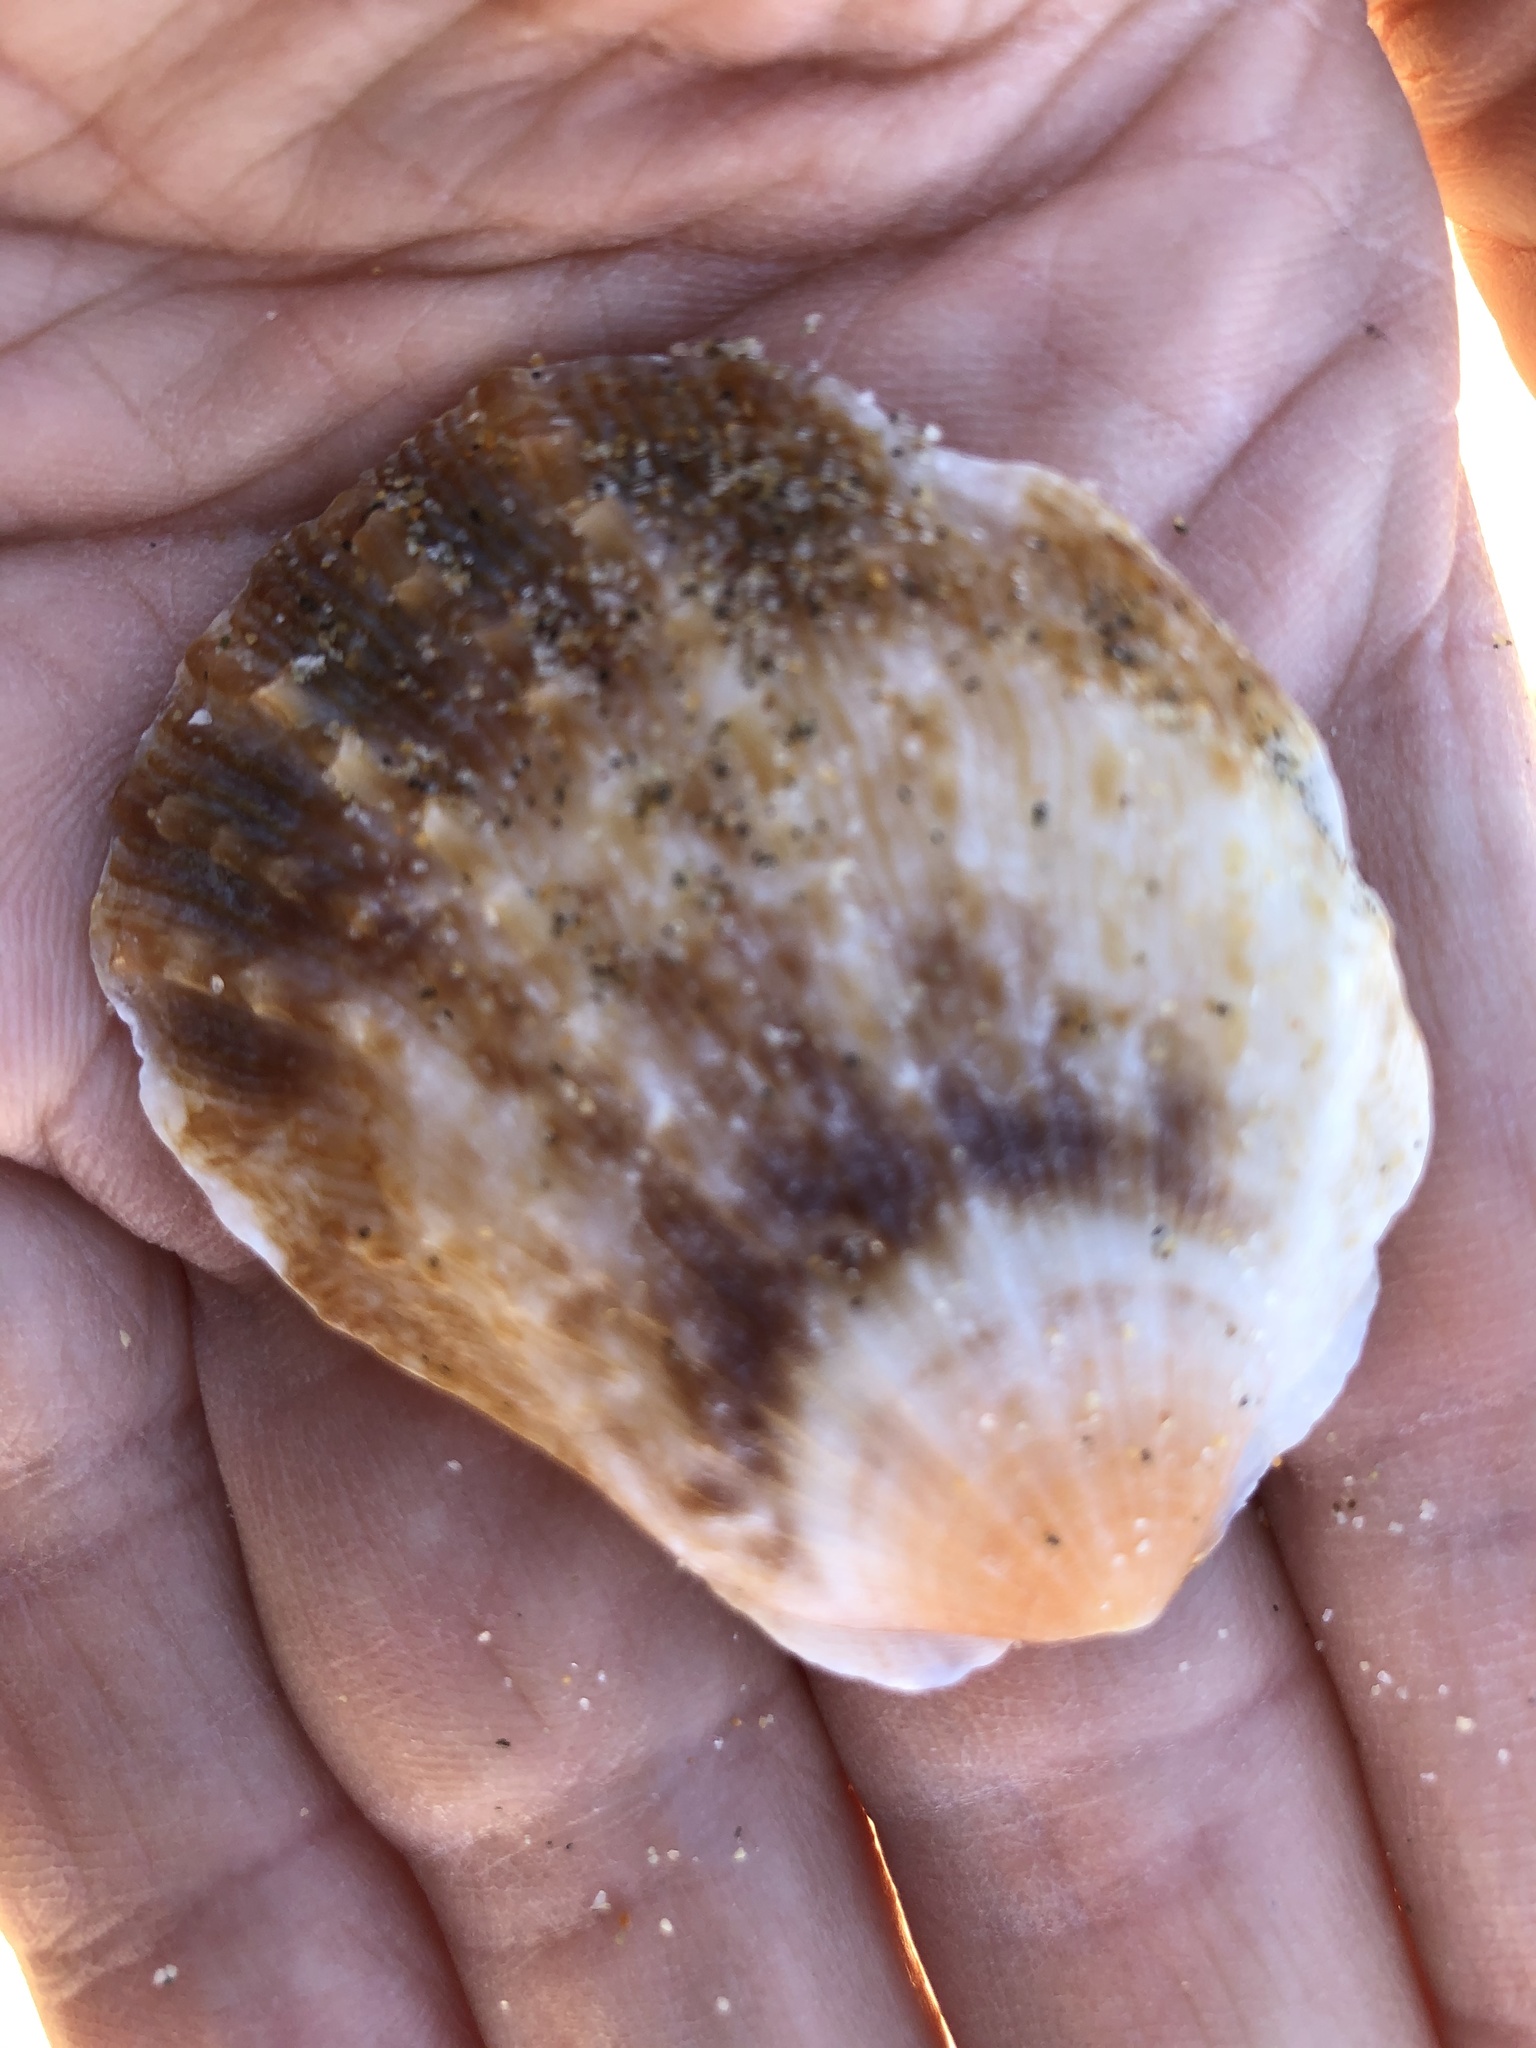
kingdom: Animalia
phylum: Mollusca
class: Bivalvia
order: Pectinida
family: Pectinidae
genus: Crassadoma
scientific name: Crassadoma gigantea
